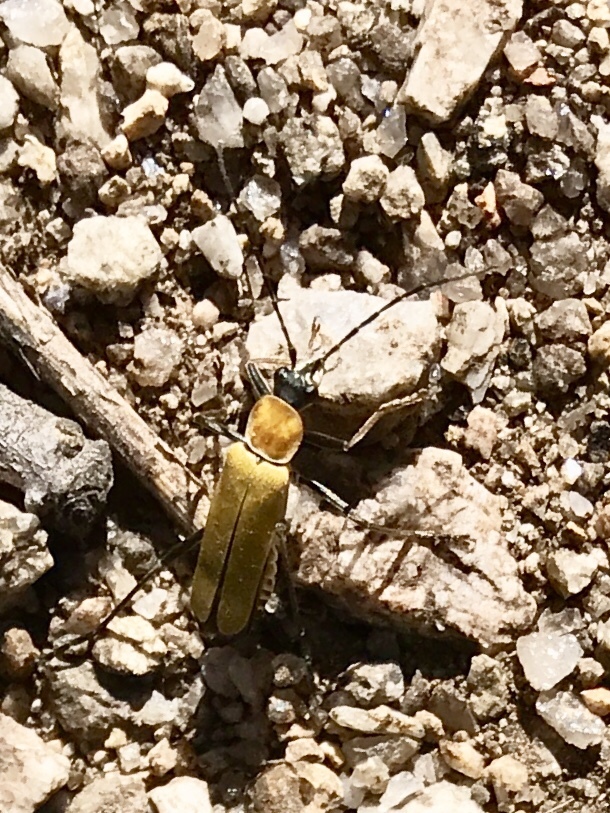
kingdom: Animalia
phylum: Arthropoda
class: Insecta
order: Coleoptera
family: Cantharidae
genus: Chauliognathus
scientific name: Chauliognathus misellus
